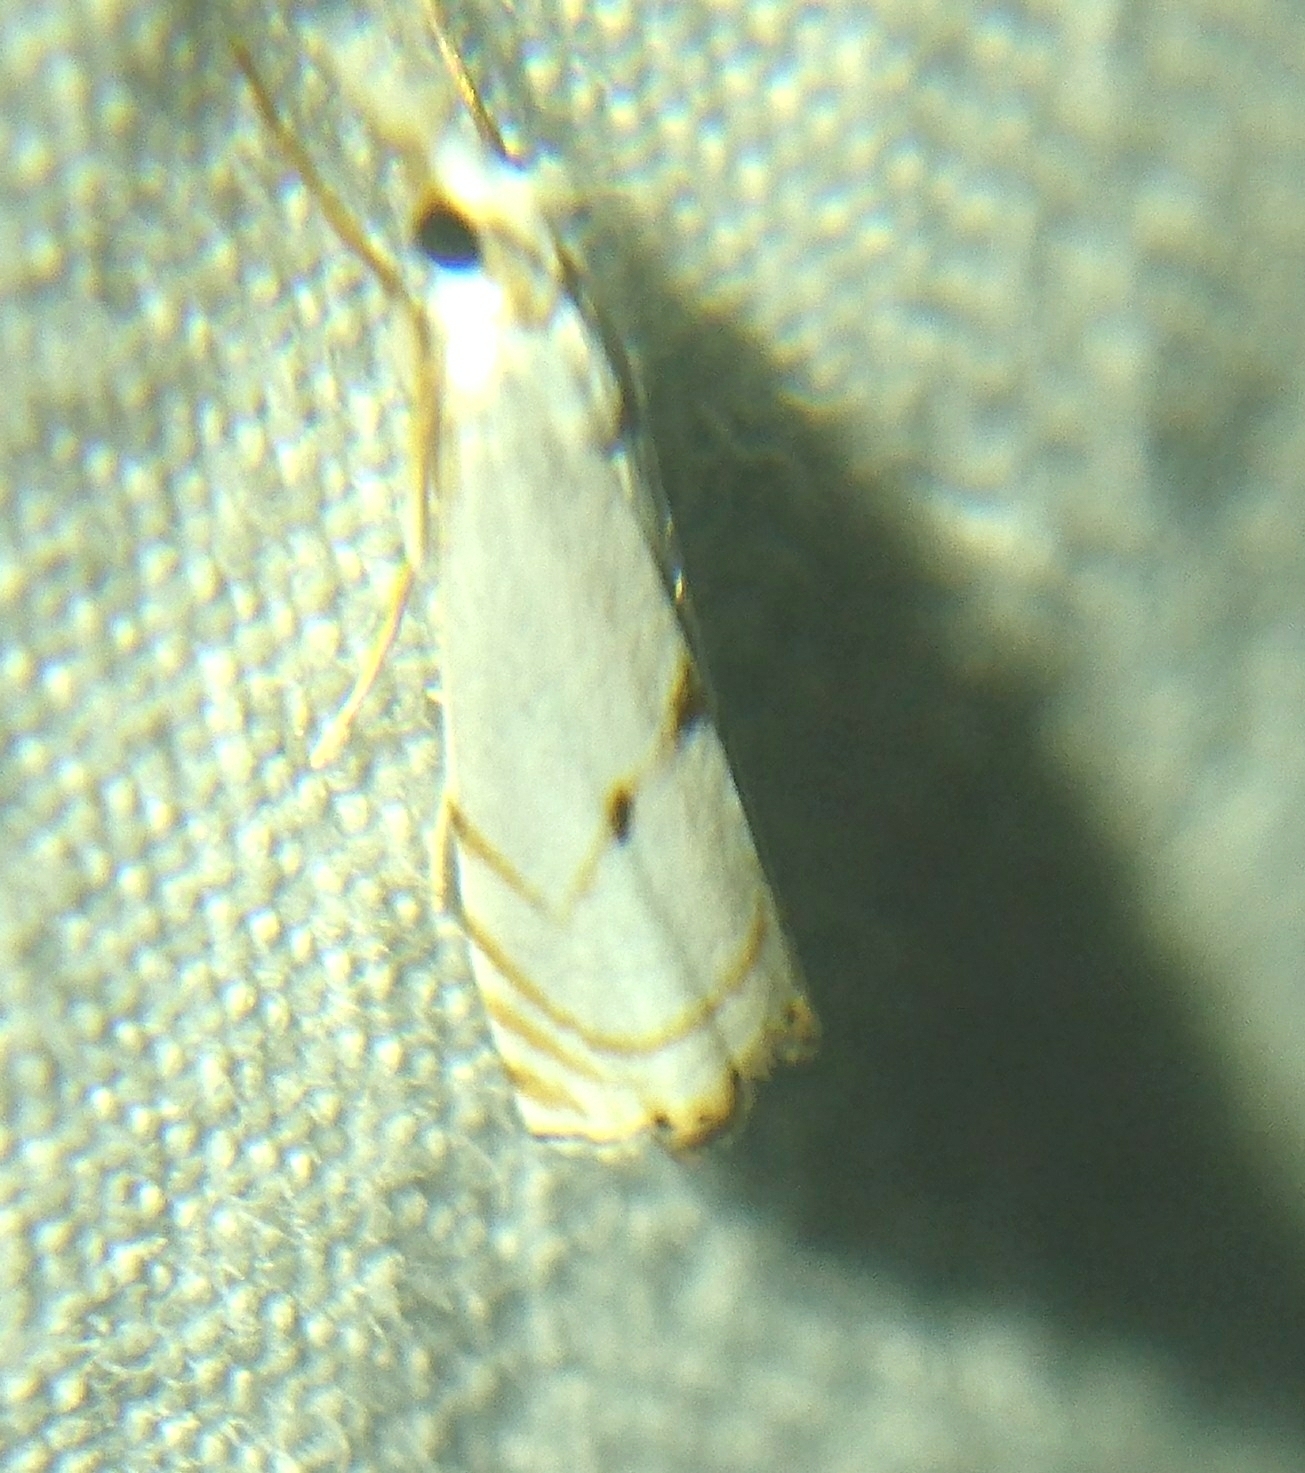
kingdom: Animalia
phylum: Arthropoda
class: Insecta
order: Lepidoptera
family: Crambidae
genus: Microcrambus
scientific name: Microcrambus biguttellus
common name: Gold-stripe grass-veneer moth
